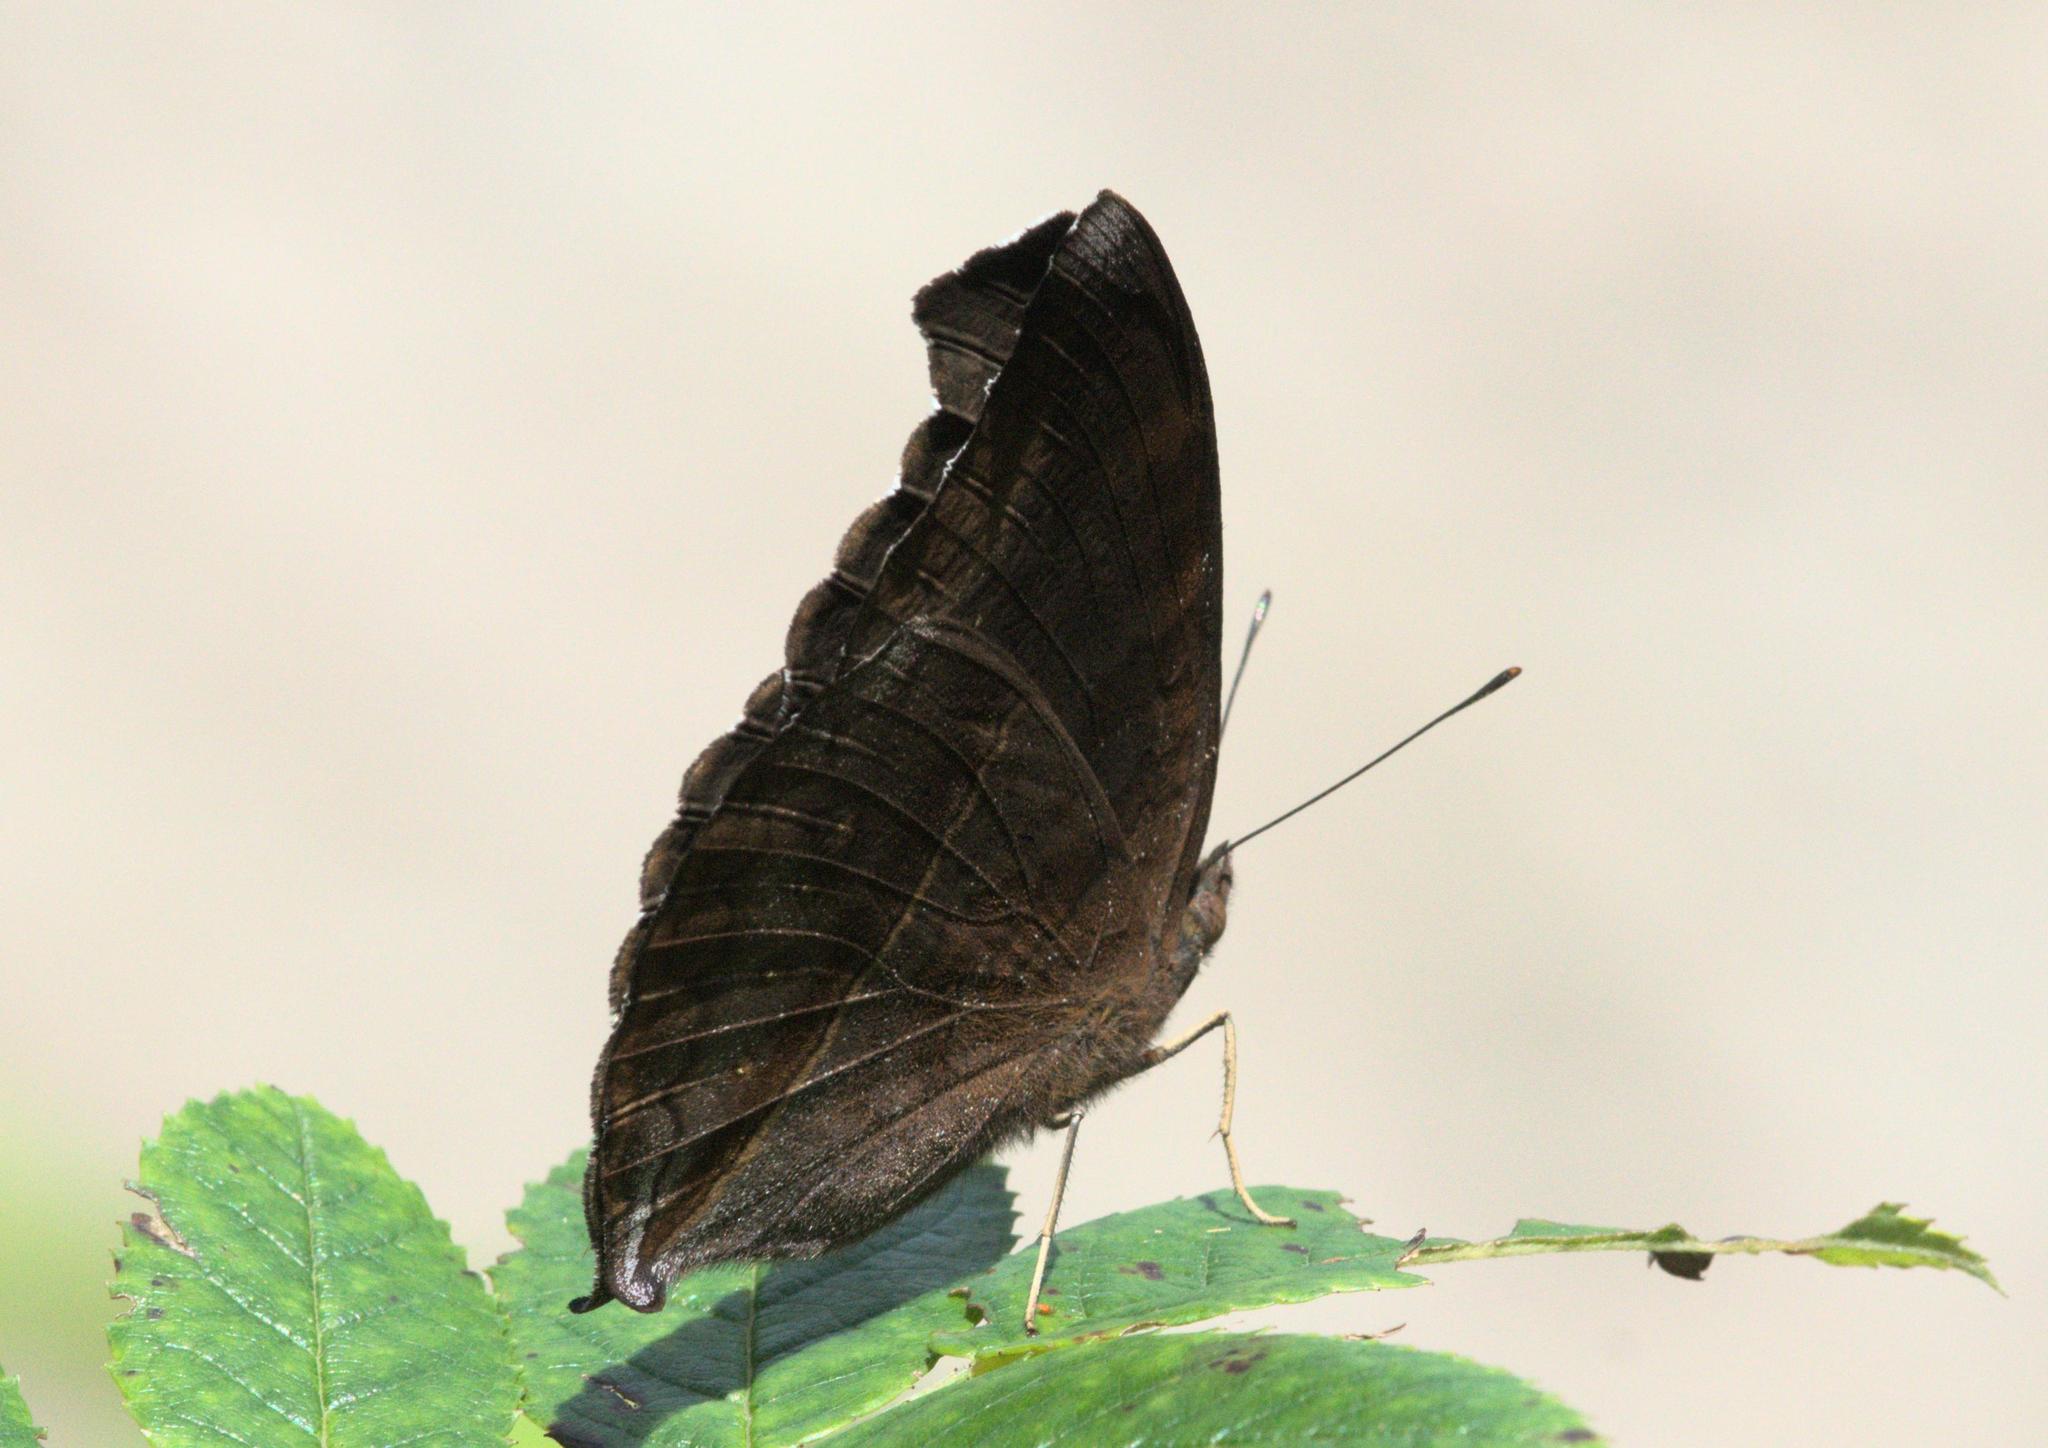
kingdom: Animalia
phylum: Arthropoda
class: Insecta
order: Lepidoptera
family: Nymphalidae
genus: Junonia
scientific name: Junonia iphita
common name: Chocolate pansy
